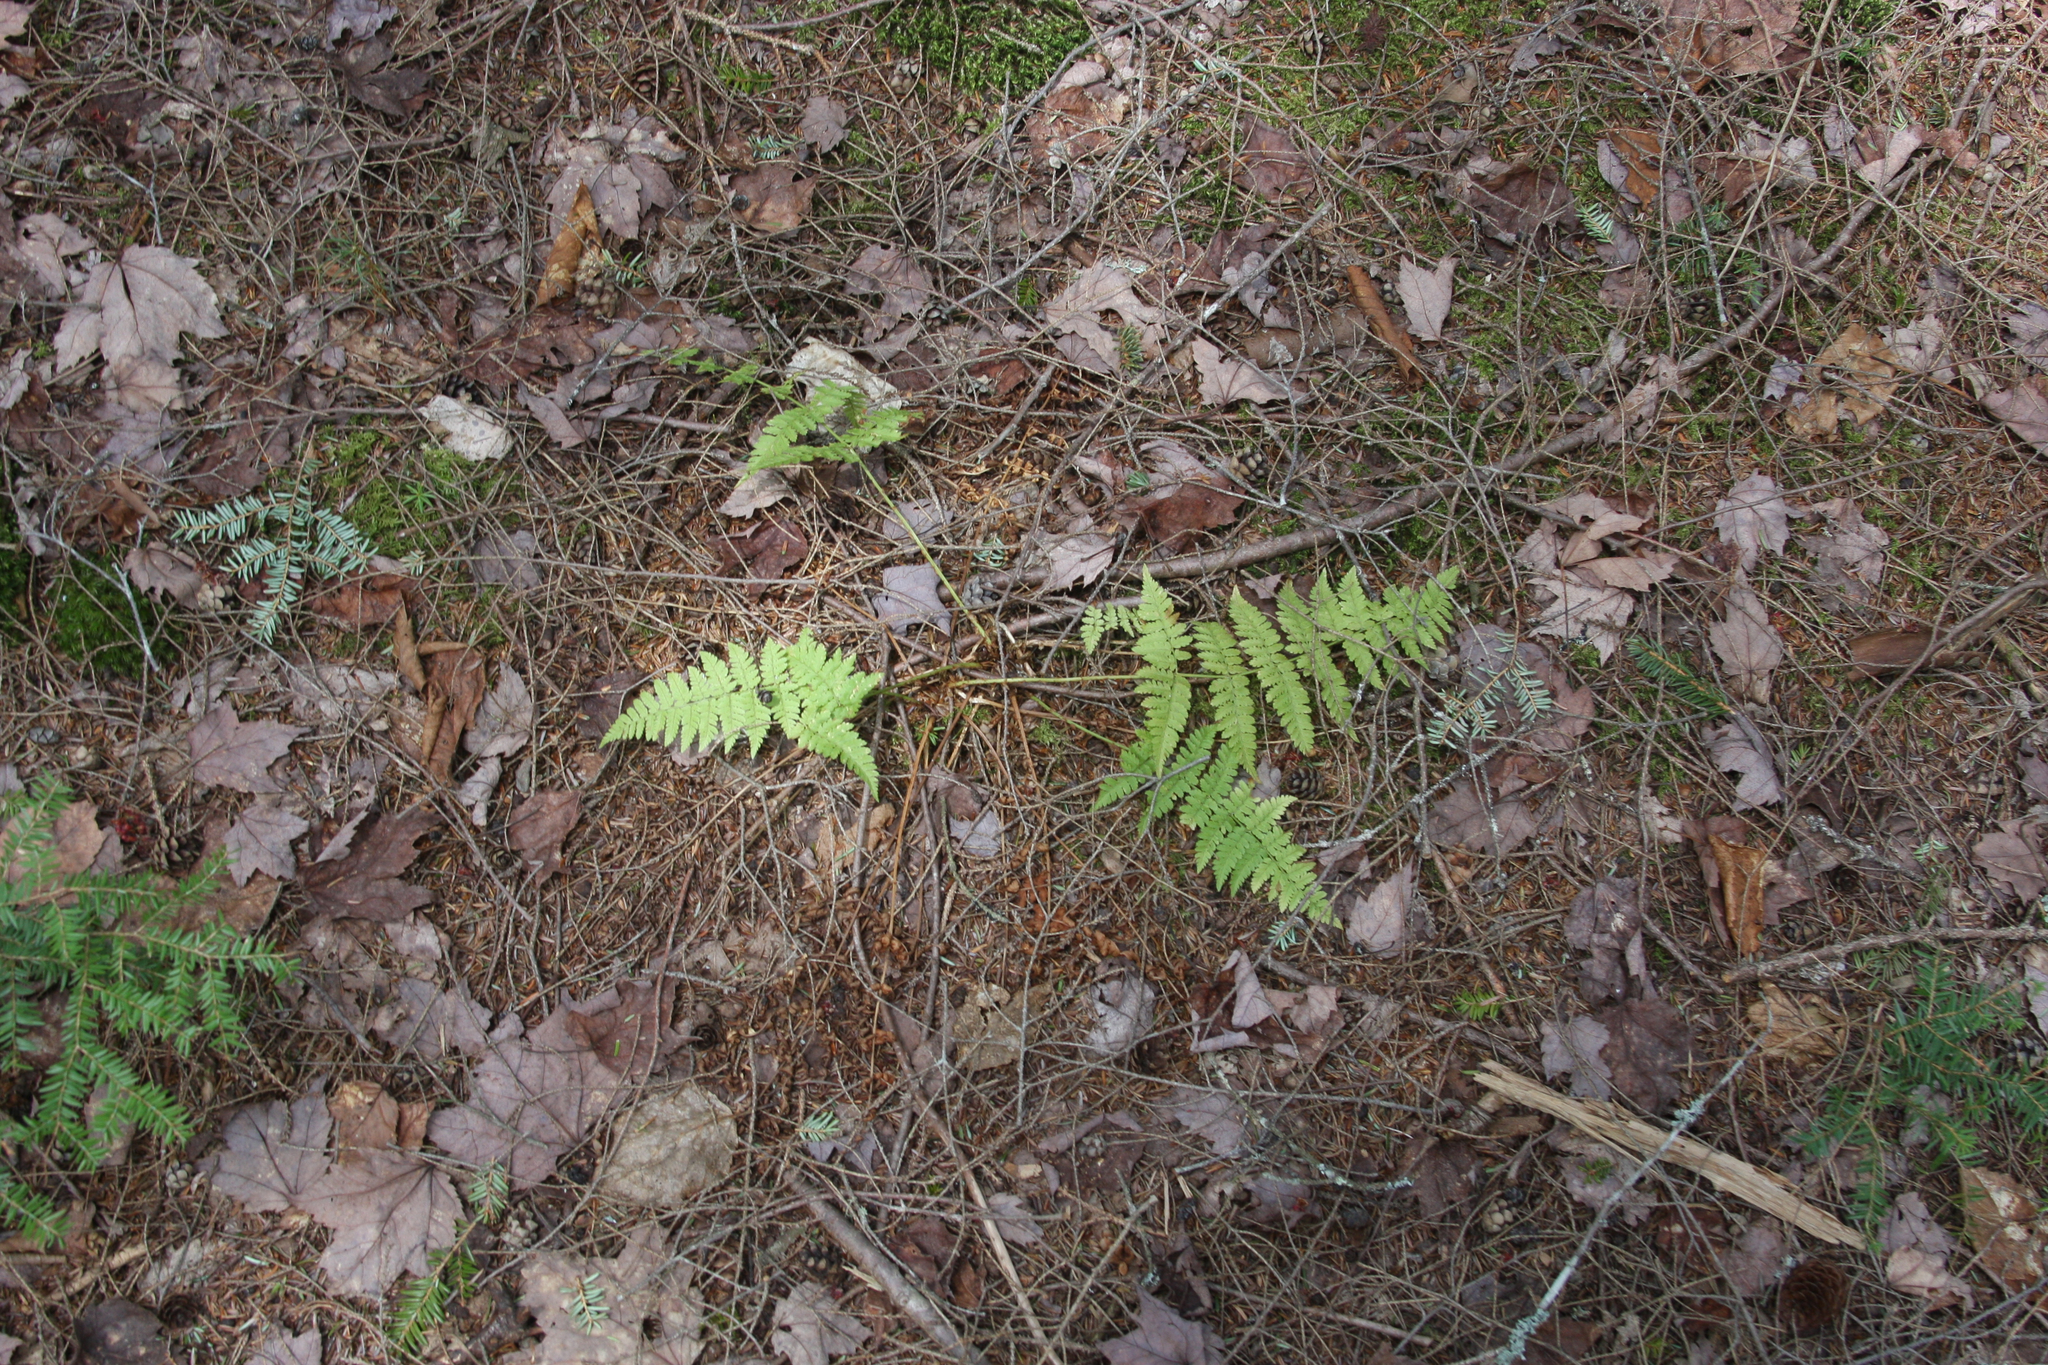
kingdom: Plantae
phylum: Tracheophyta
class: Polypodiopsida
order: Polypodiales
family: Dryopteridaceae
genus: Dryopteris
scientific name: Dryopteris intermedia
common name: Evergreen wood fern
